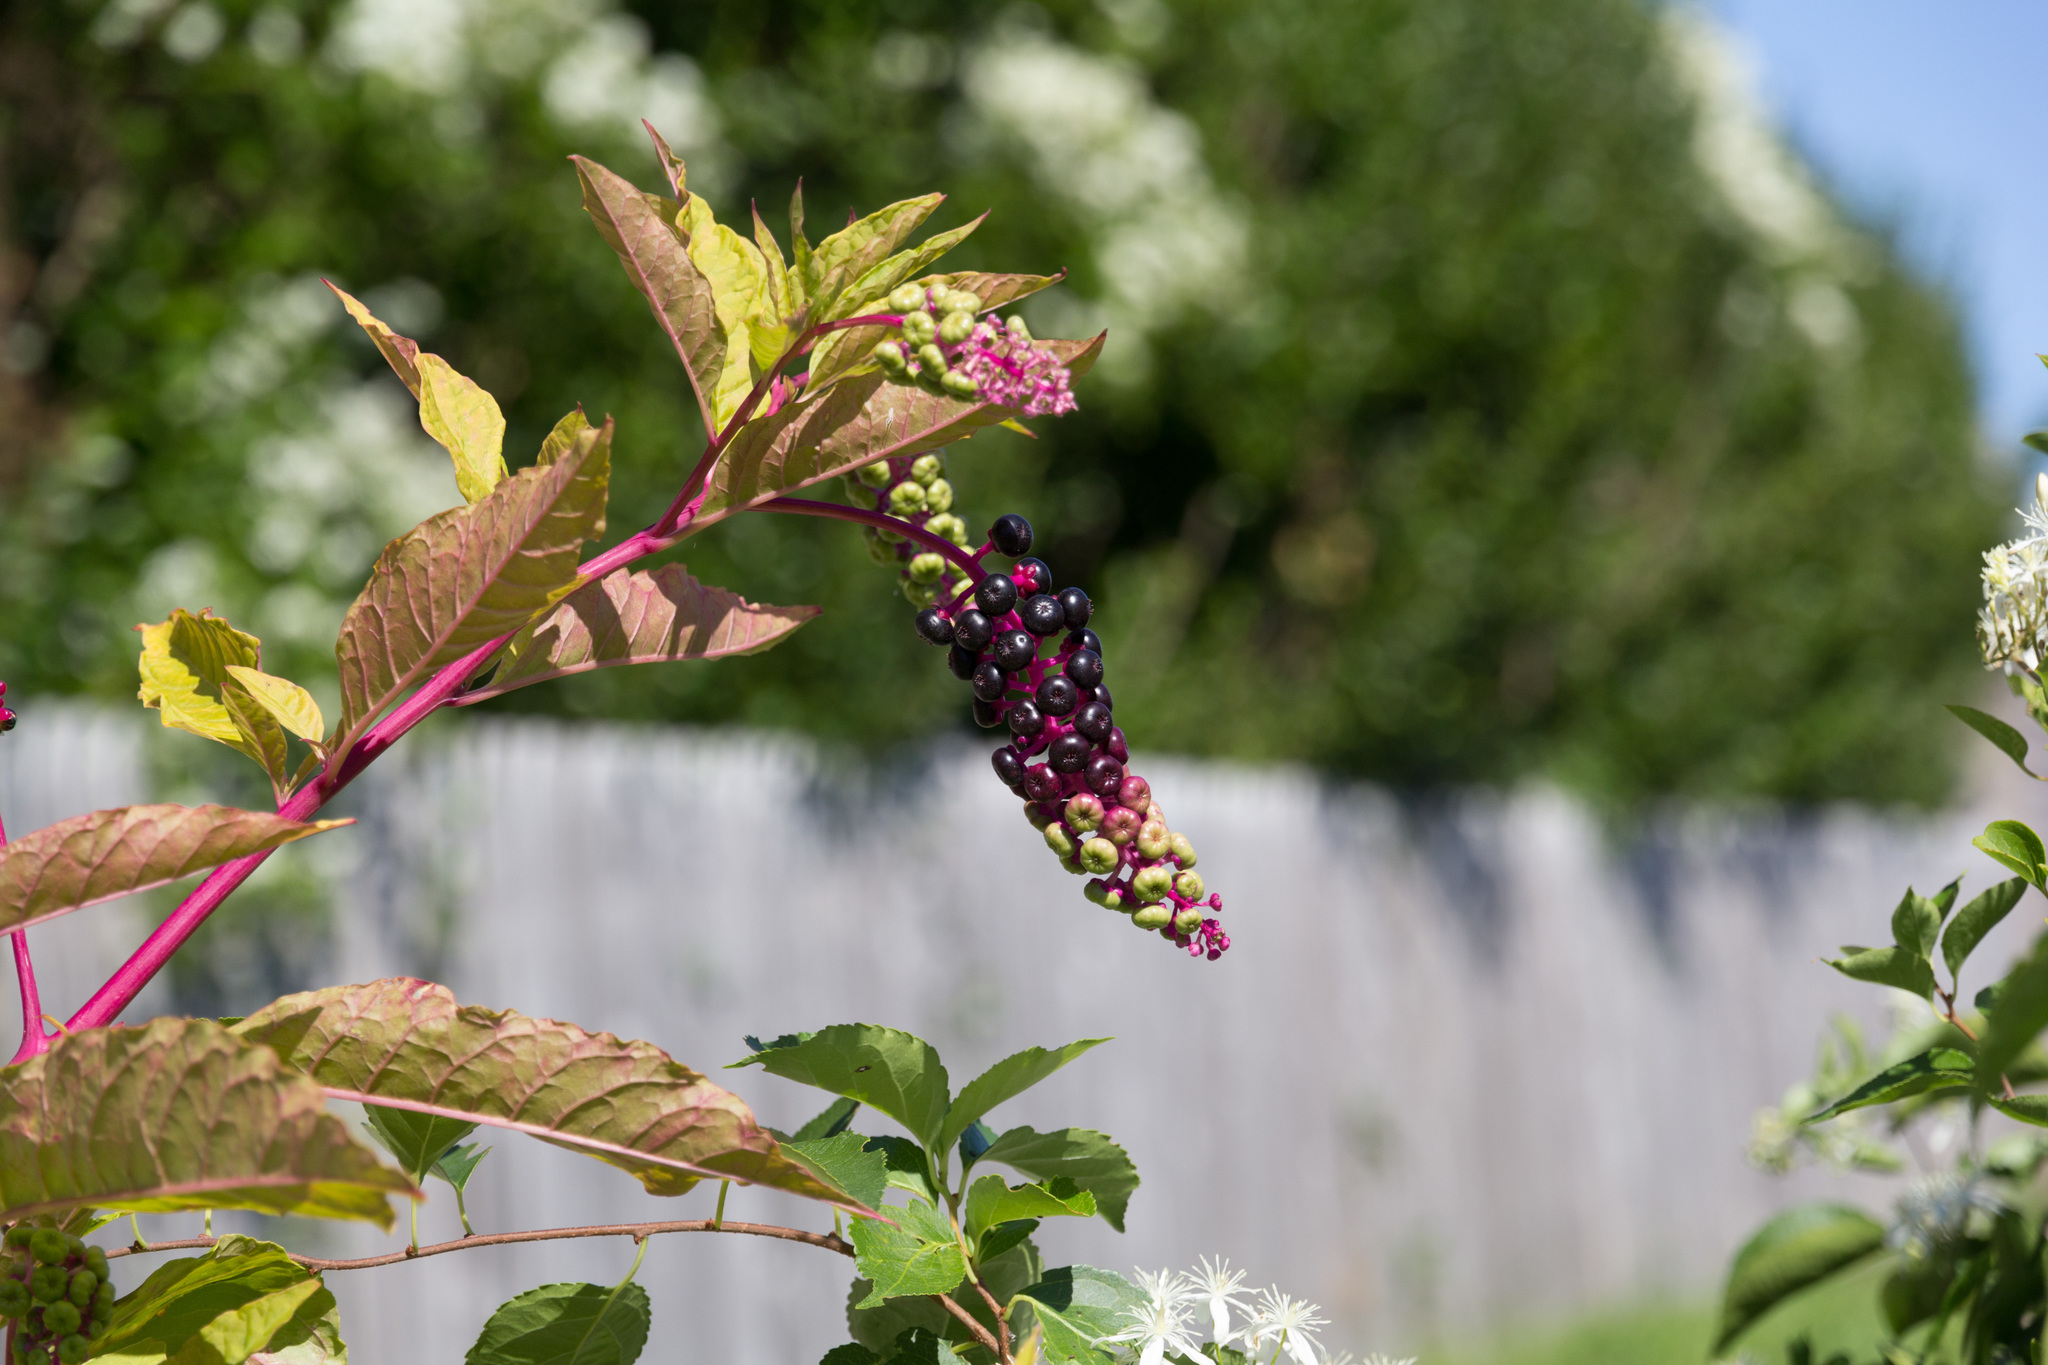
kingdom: Plantae
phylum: Tracheophyta
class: Magnoliopsida
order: Caryophyllales
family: Phytolaccaceae
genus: Phytolacca
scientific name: Phytolacca americana
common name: American pokeweed
